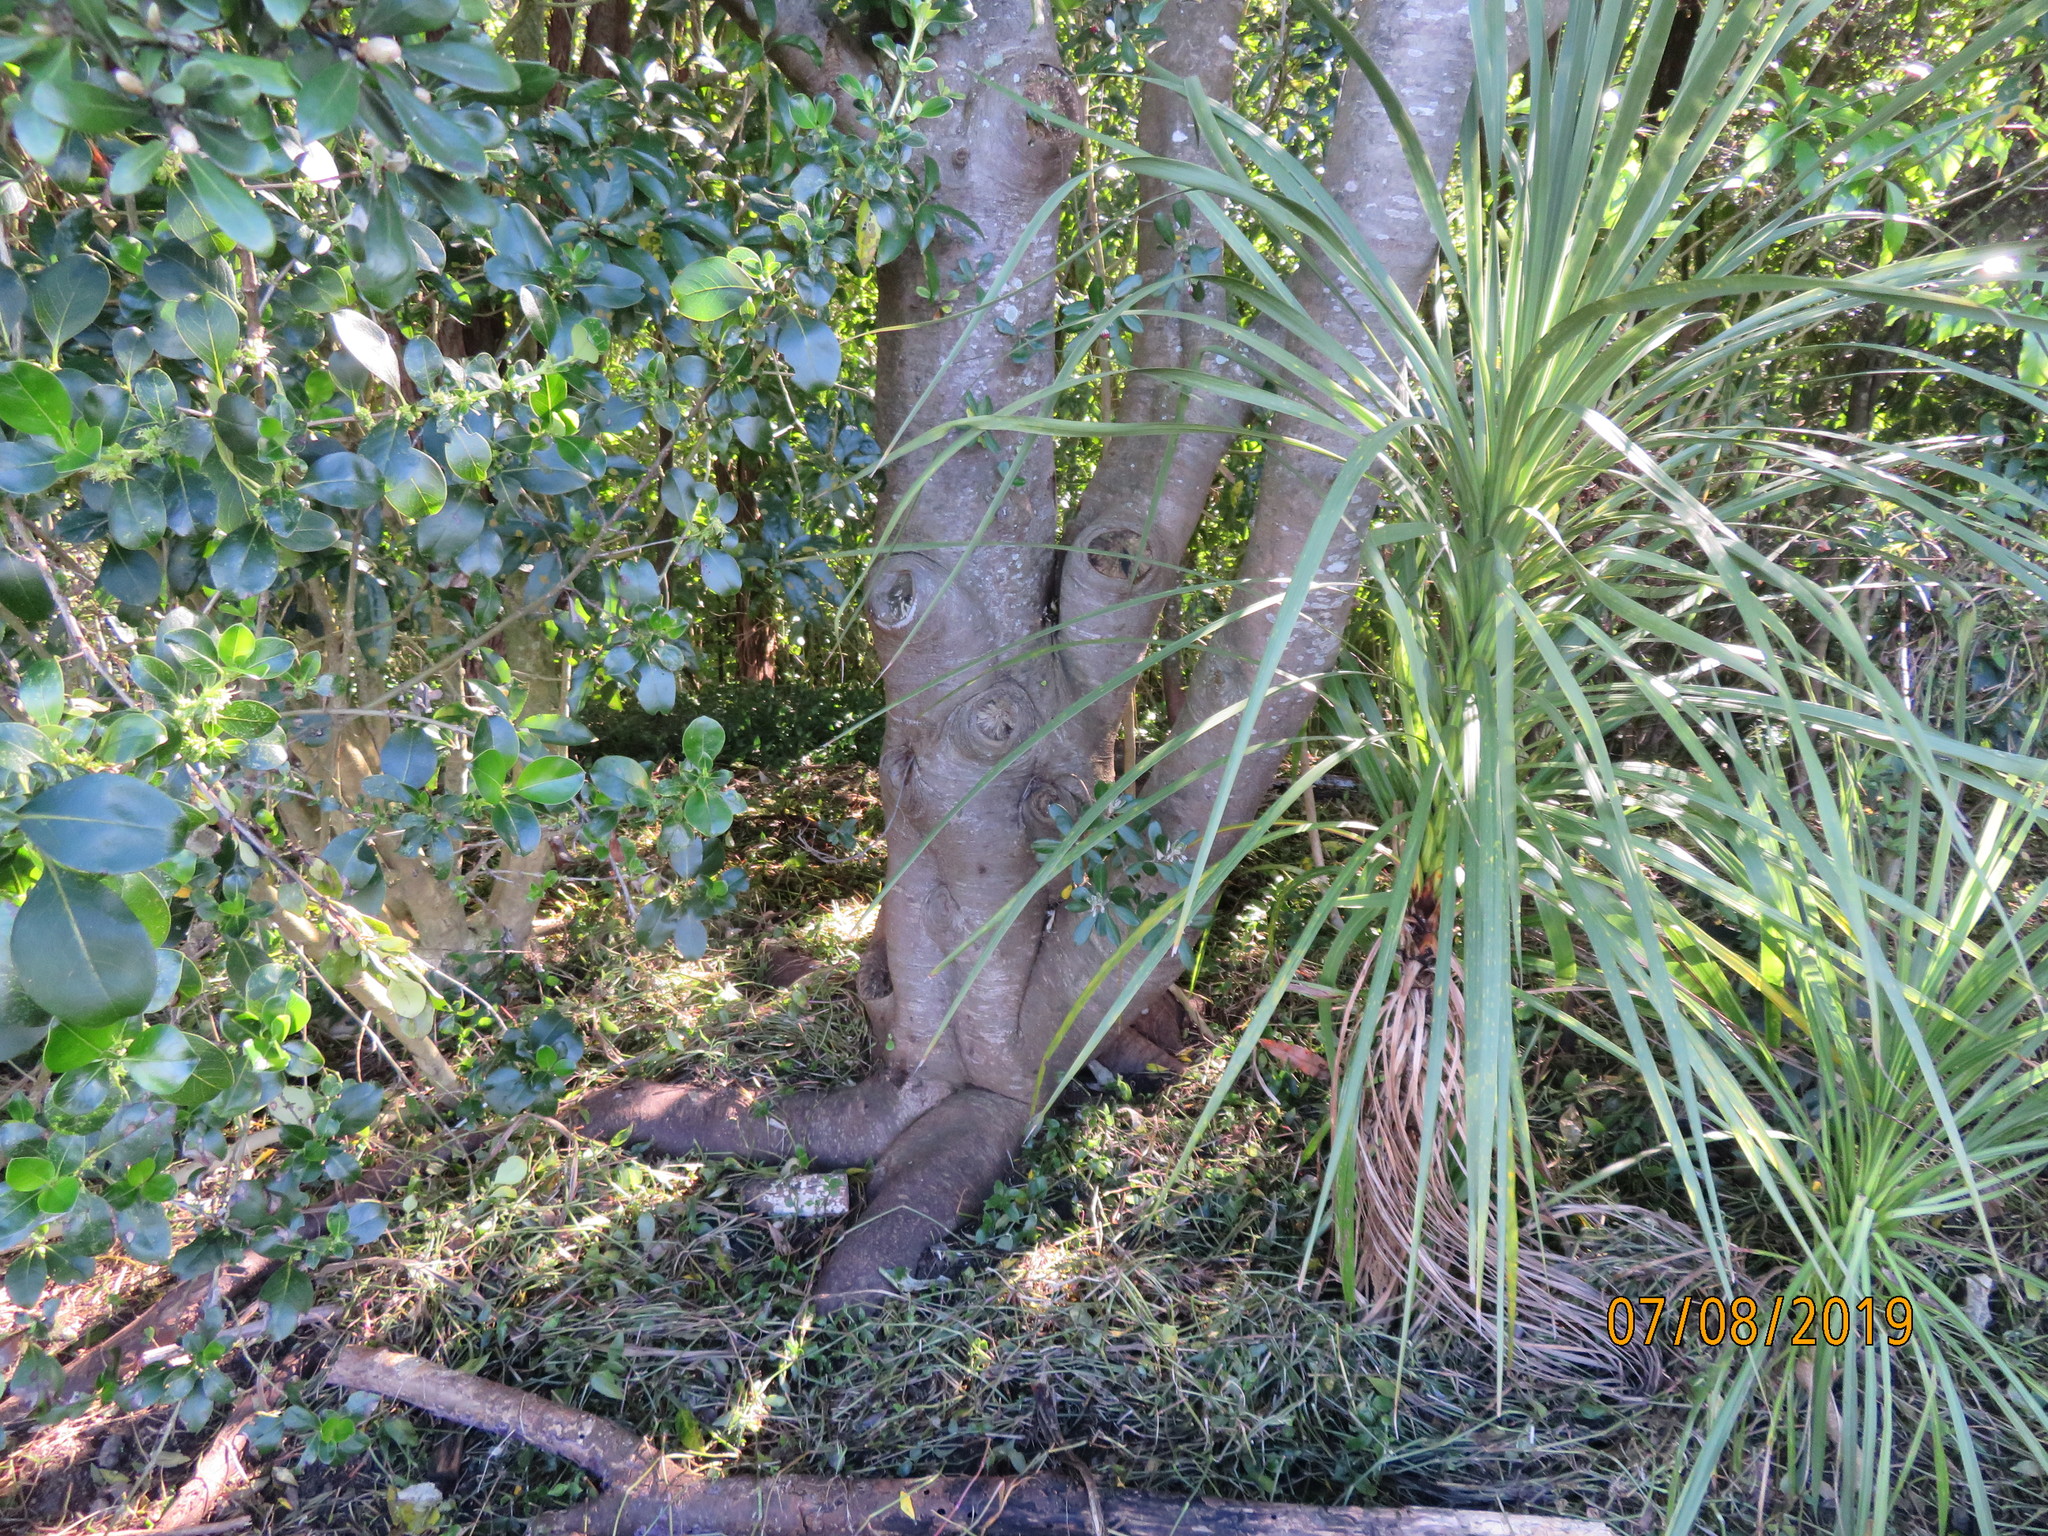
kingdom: Plantae
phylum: Tracheophyta
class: Magnoliopsida
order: Apiales
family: Pittosporaceae
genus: Pittosporum
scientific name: Pittosporum crassifolium
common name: Karo
